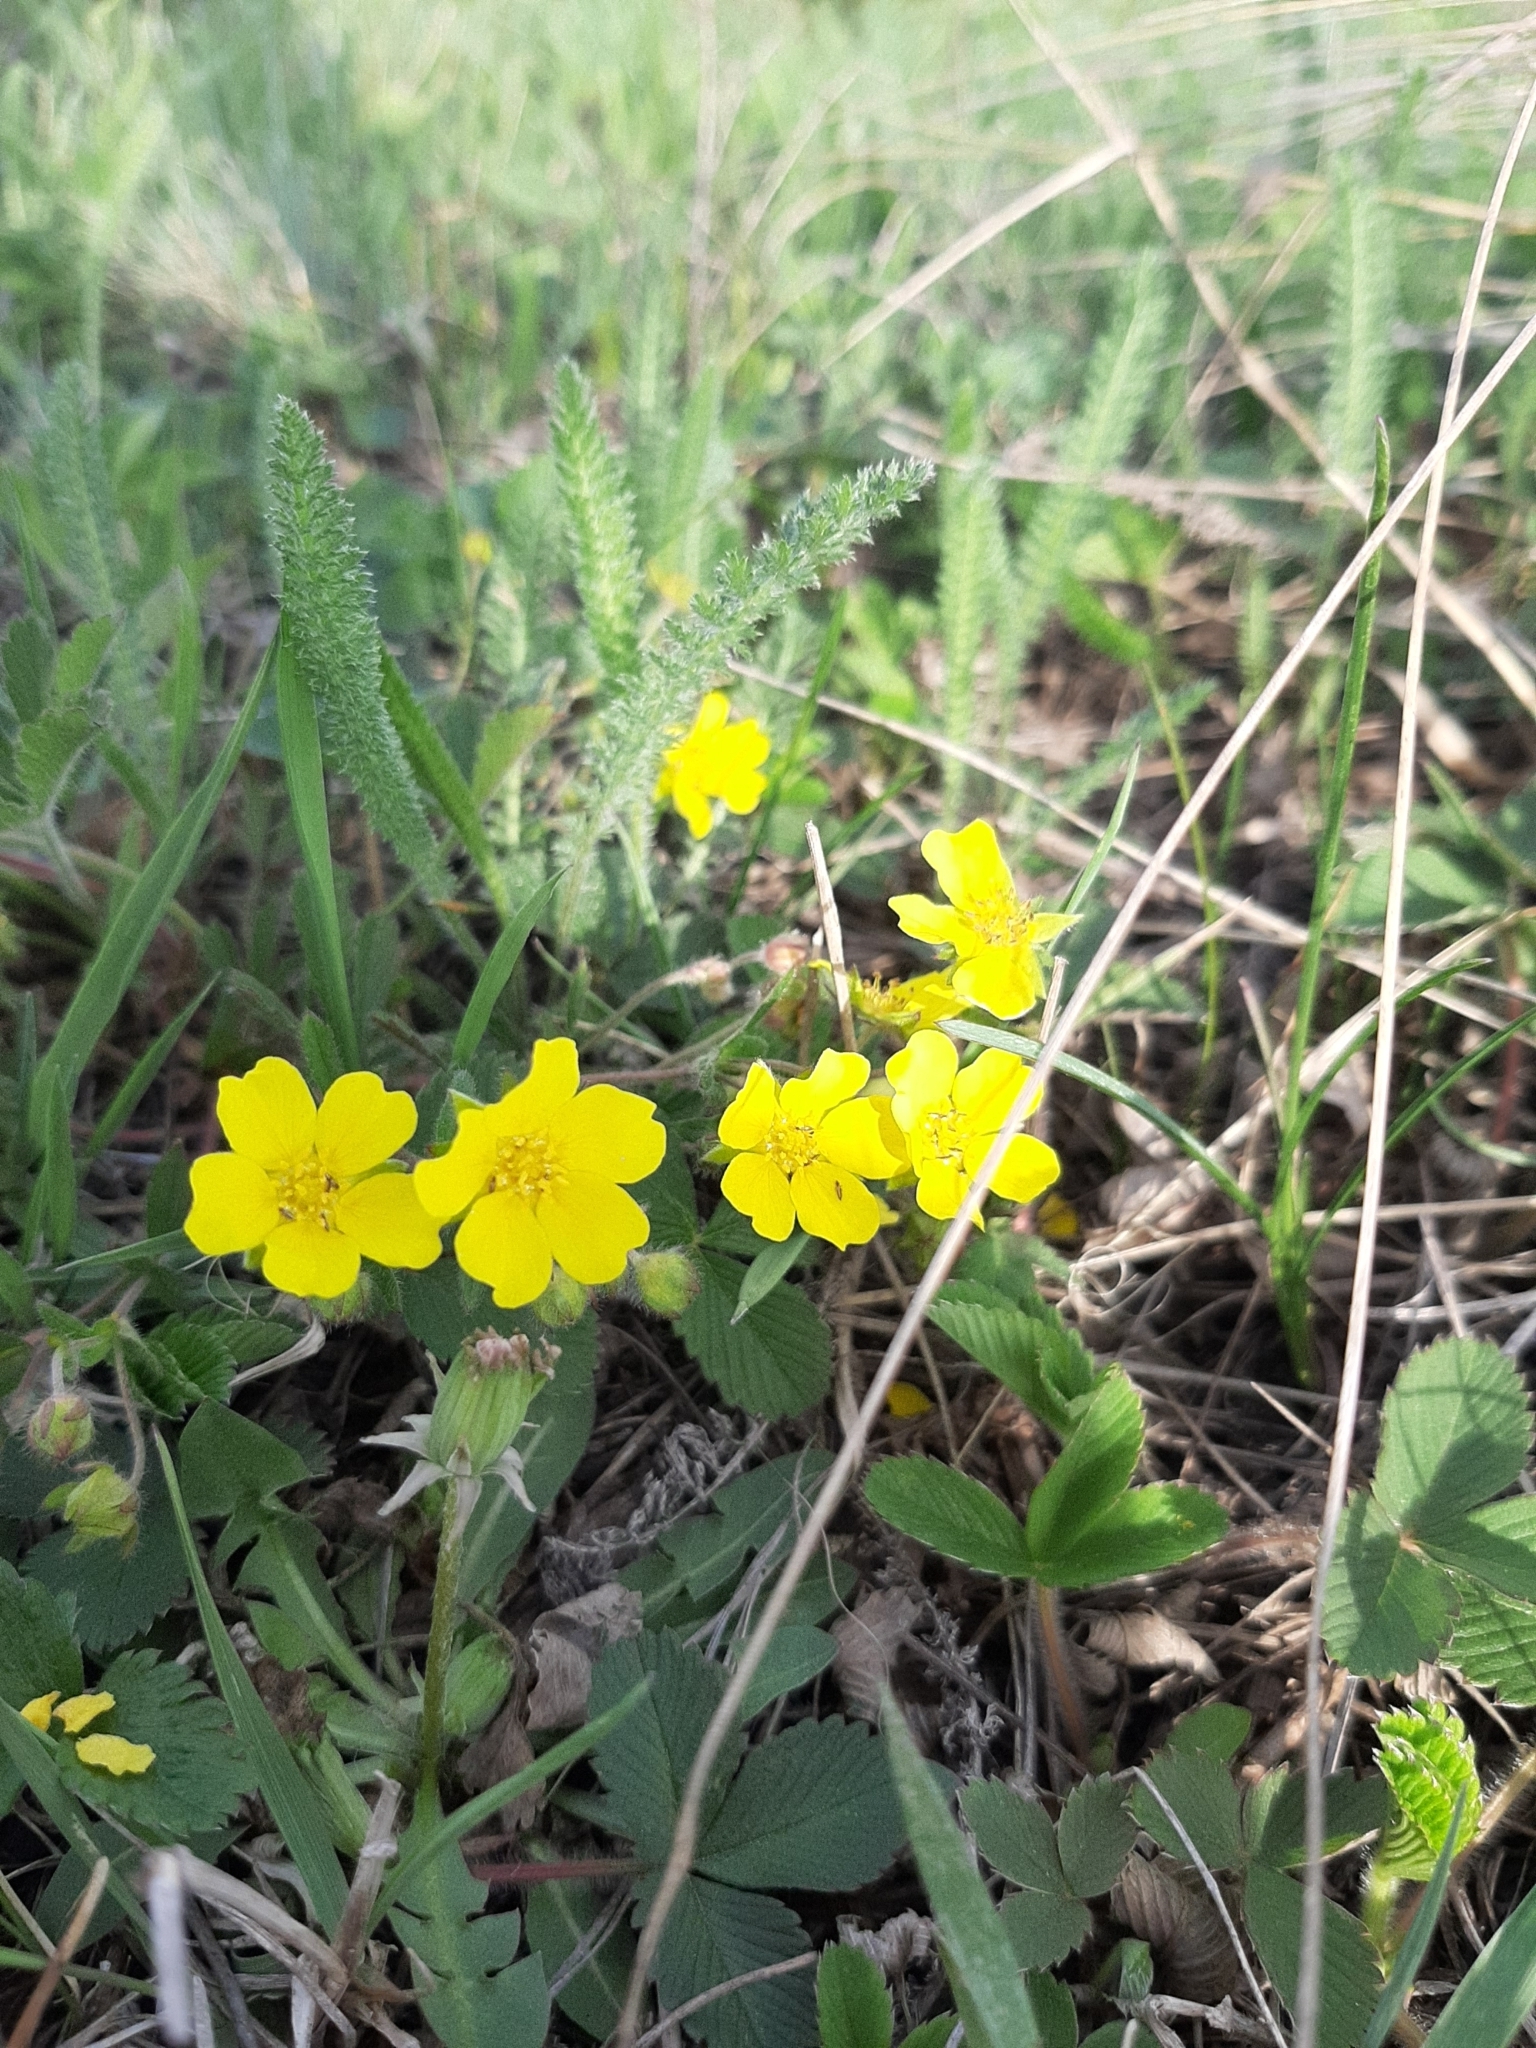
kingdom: Plantae
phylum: Tracheophyta
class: Magnoliopsida
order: Rosales
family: Rosaceae
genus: Potentilla
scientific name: Potentilla humifusa
